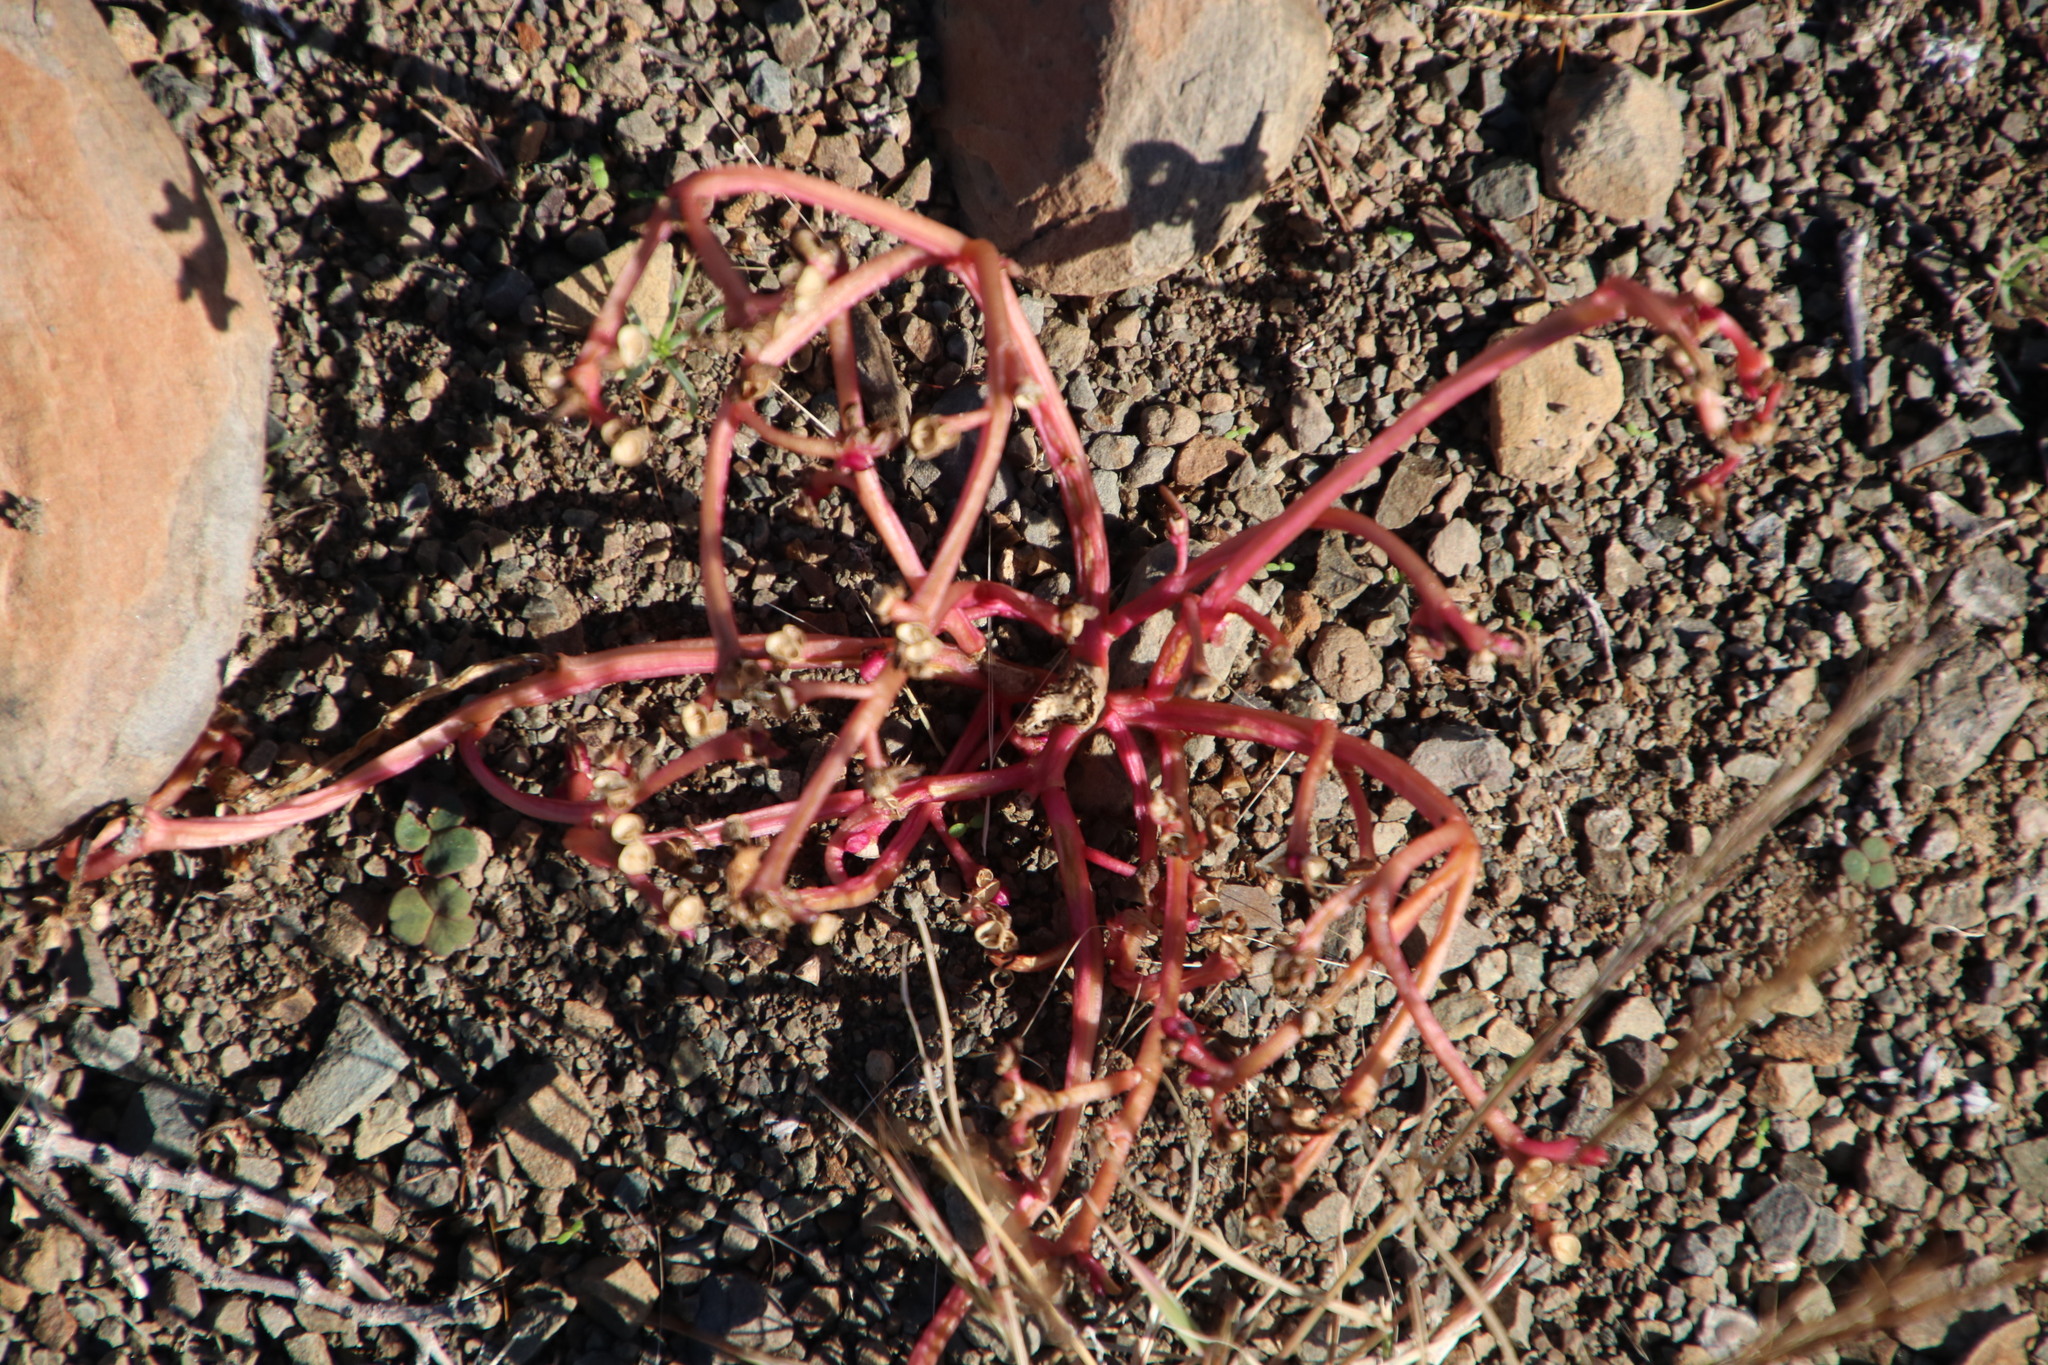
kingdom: Plantae
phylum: Tracheophyta
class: Magnoliopsida
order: Caryophyllales
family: Portulacaceae
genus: Portulaca
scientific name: Portulaca oleracea
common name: Common purslane
